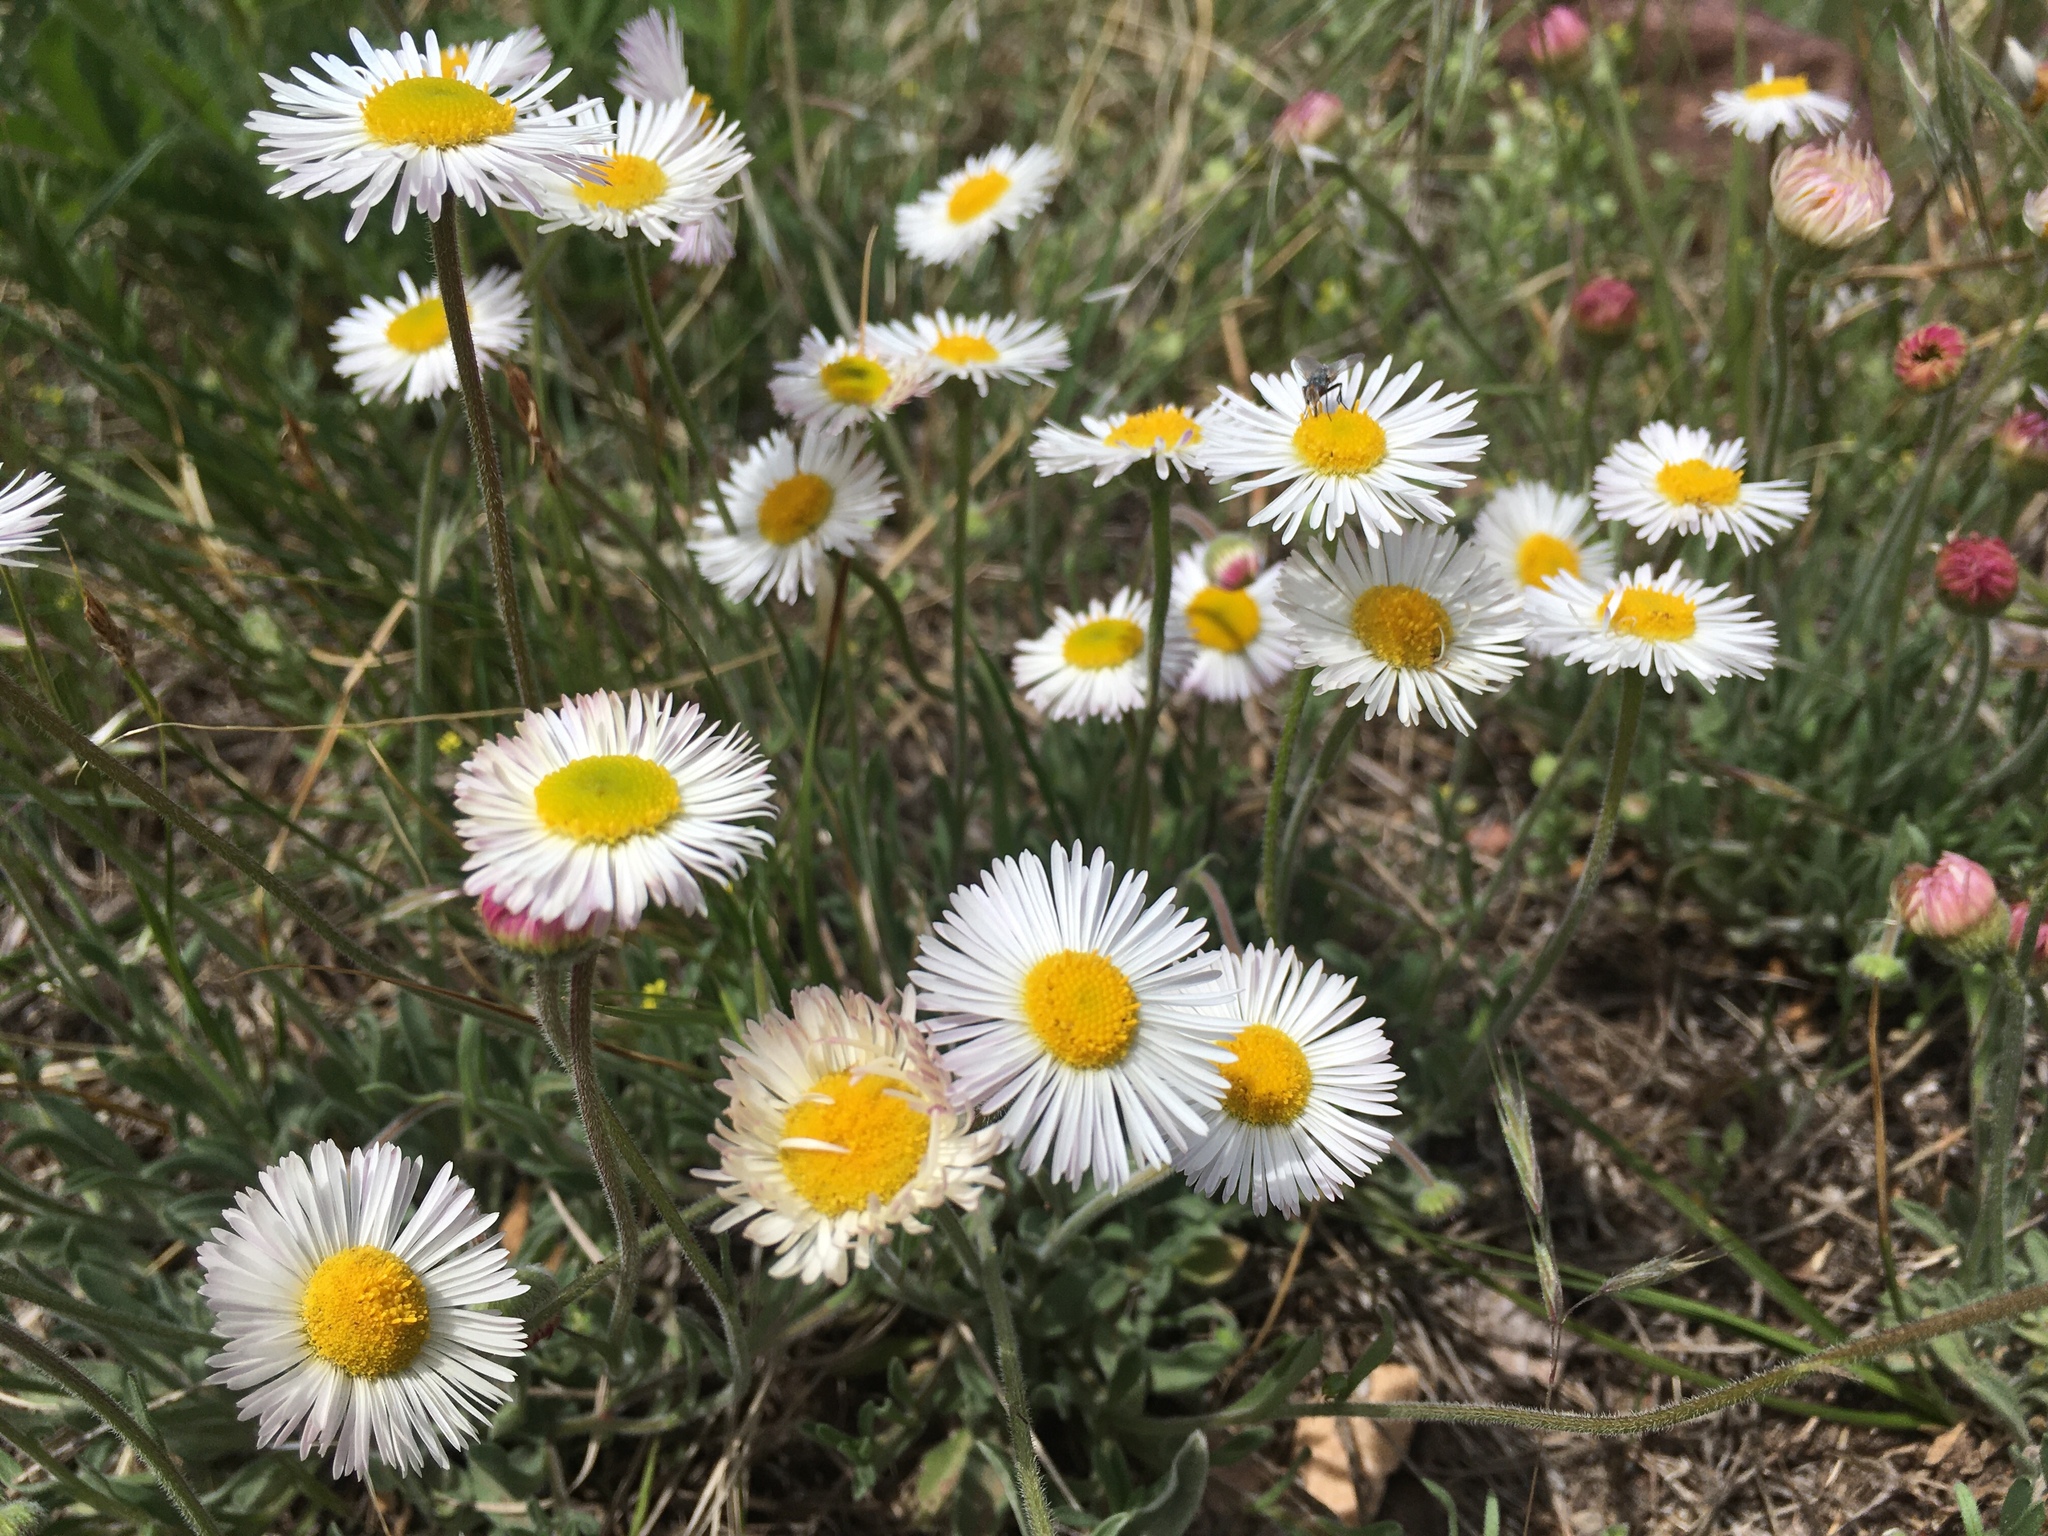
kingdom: Plantae
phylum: Tracheophyta
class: Magnoliopsida
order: Asterales
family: Asteraceae
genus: Erigeron
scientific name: Erigeron modestus
